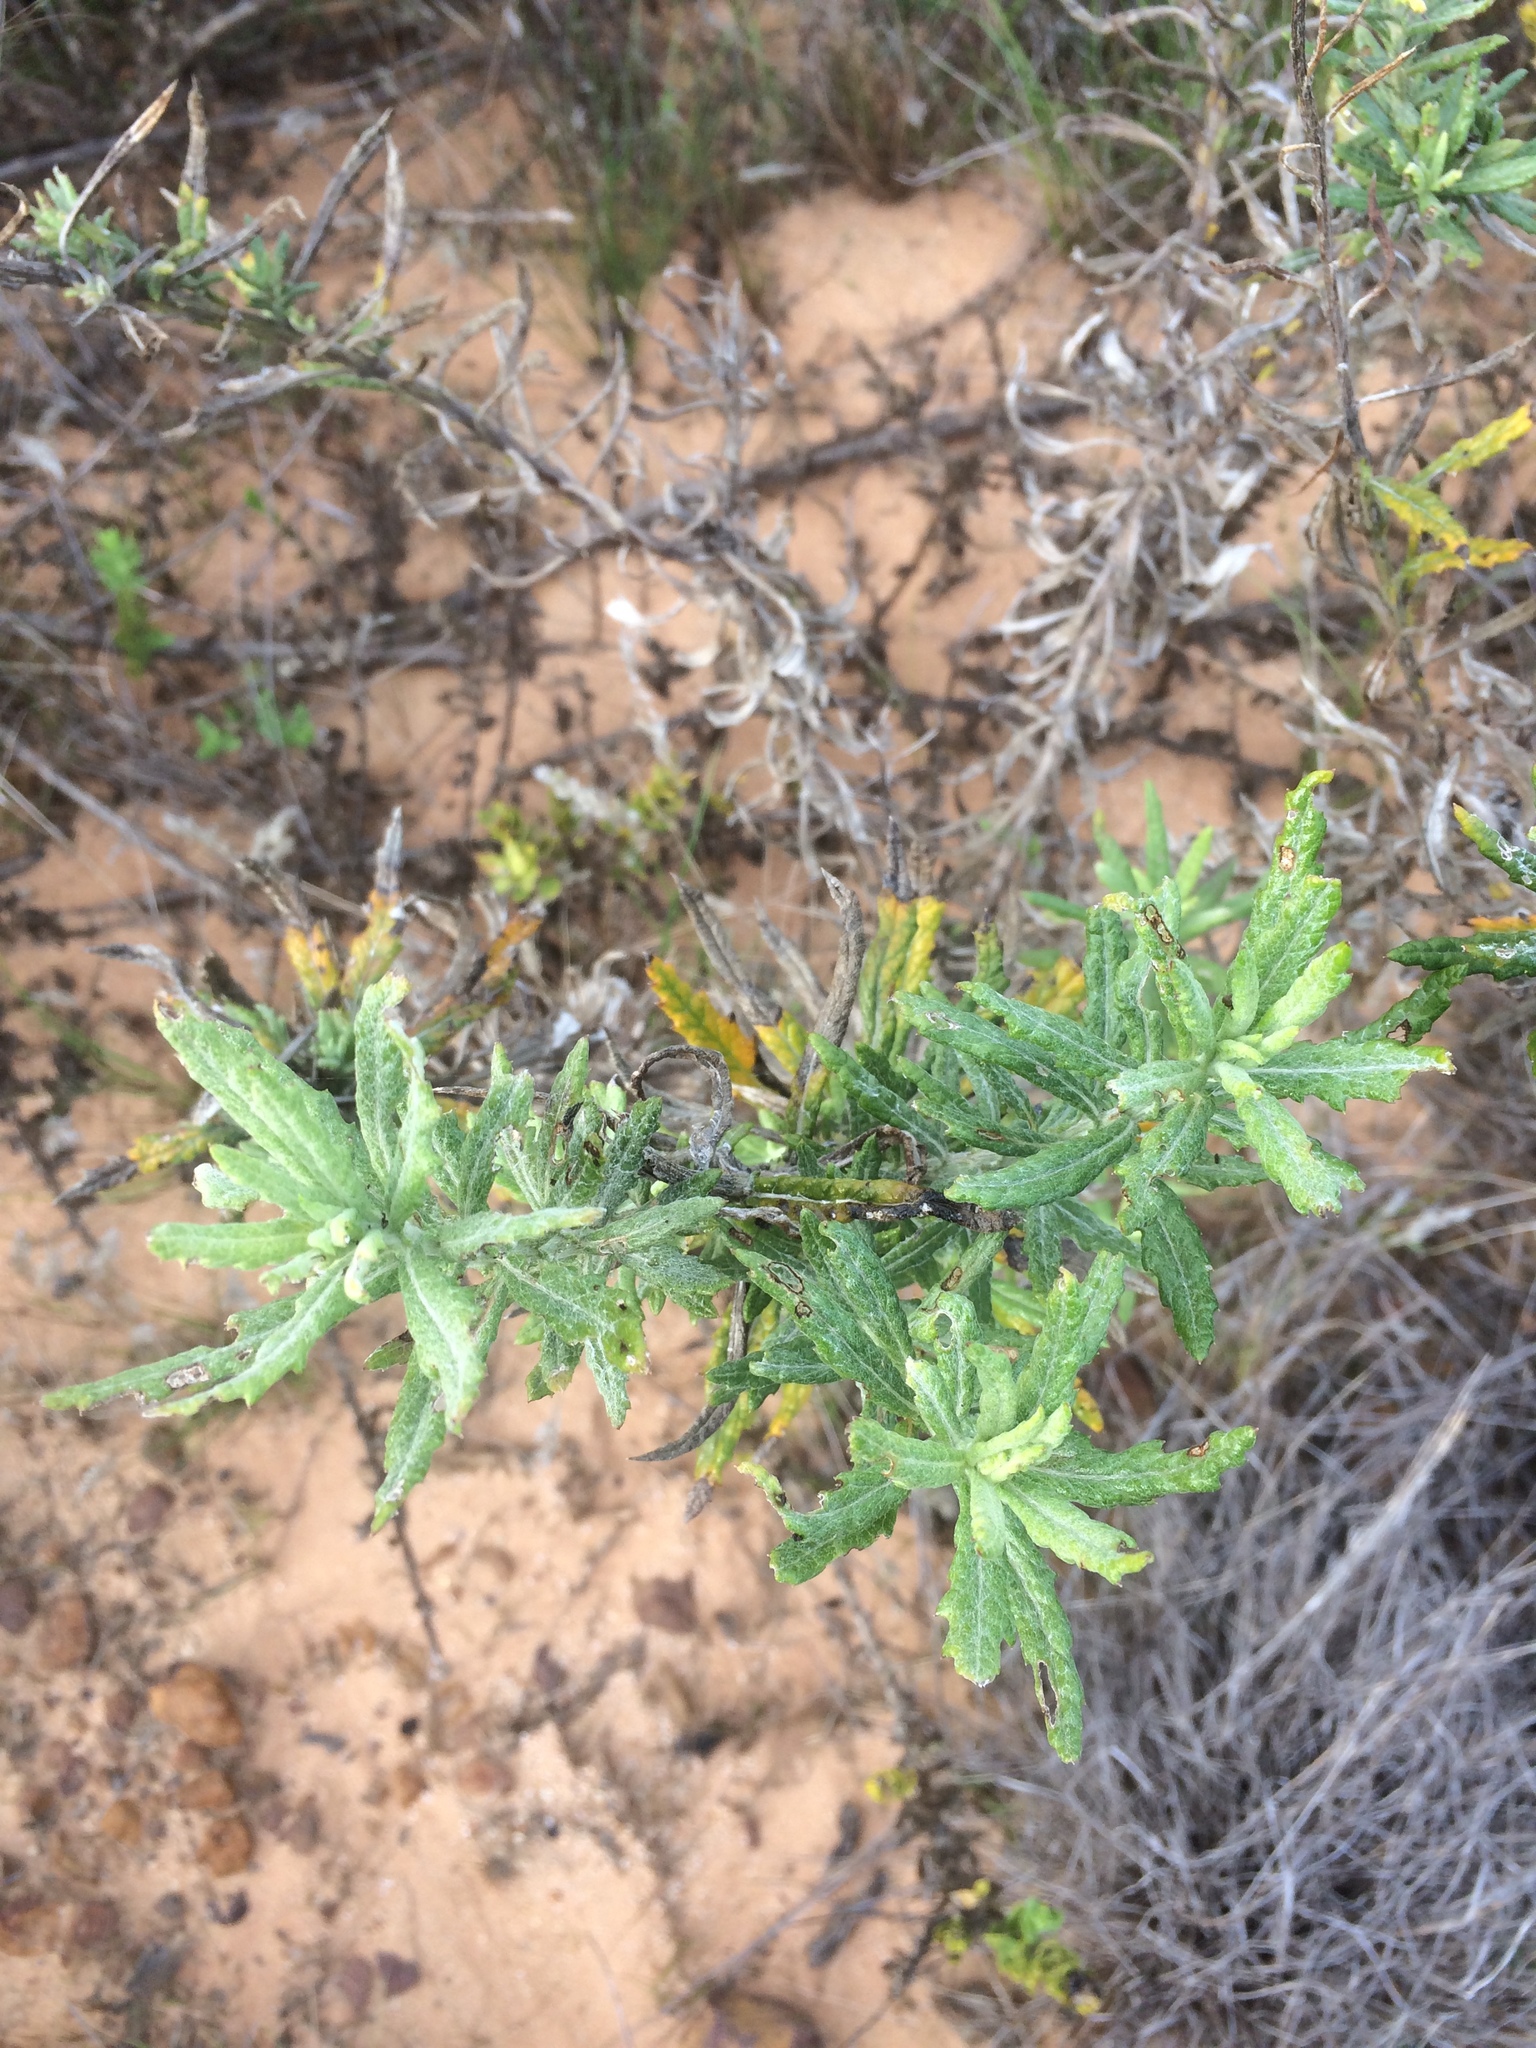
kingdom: Plantae
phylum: Tracheophyta
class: Magnoliopsida
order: Asterales
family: Asteraceae
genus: Senecio
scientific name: Senecio pterophorus
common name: Shoddy ragwort
